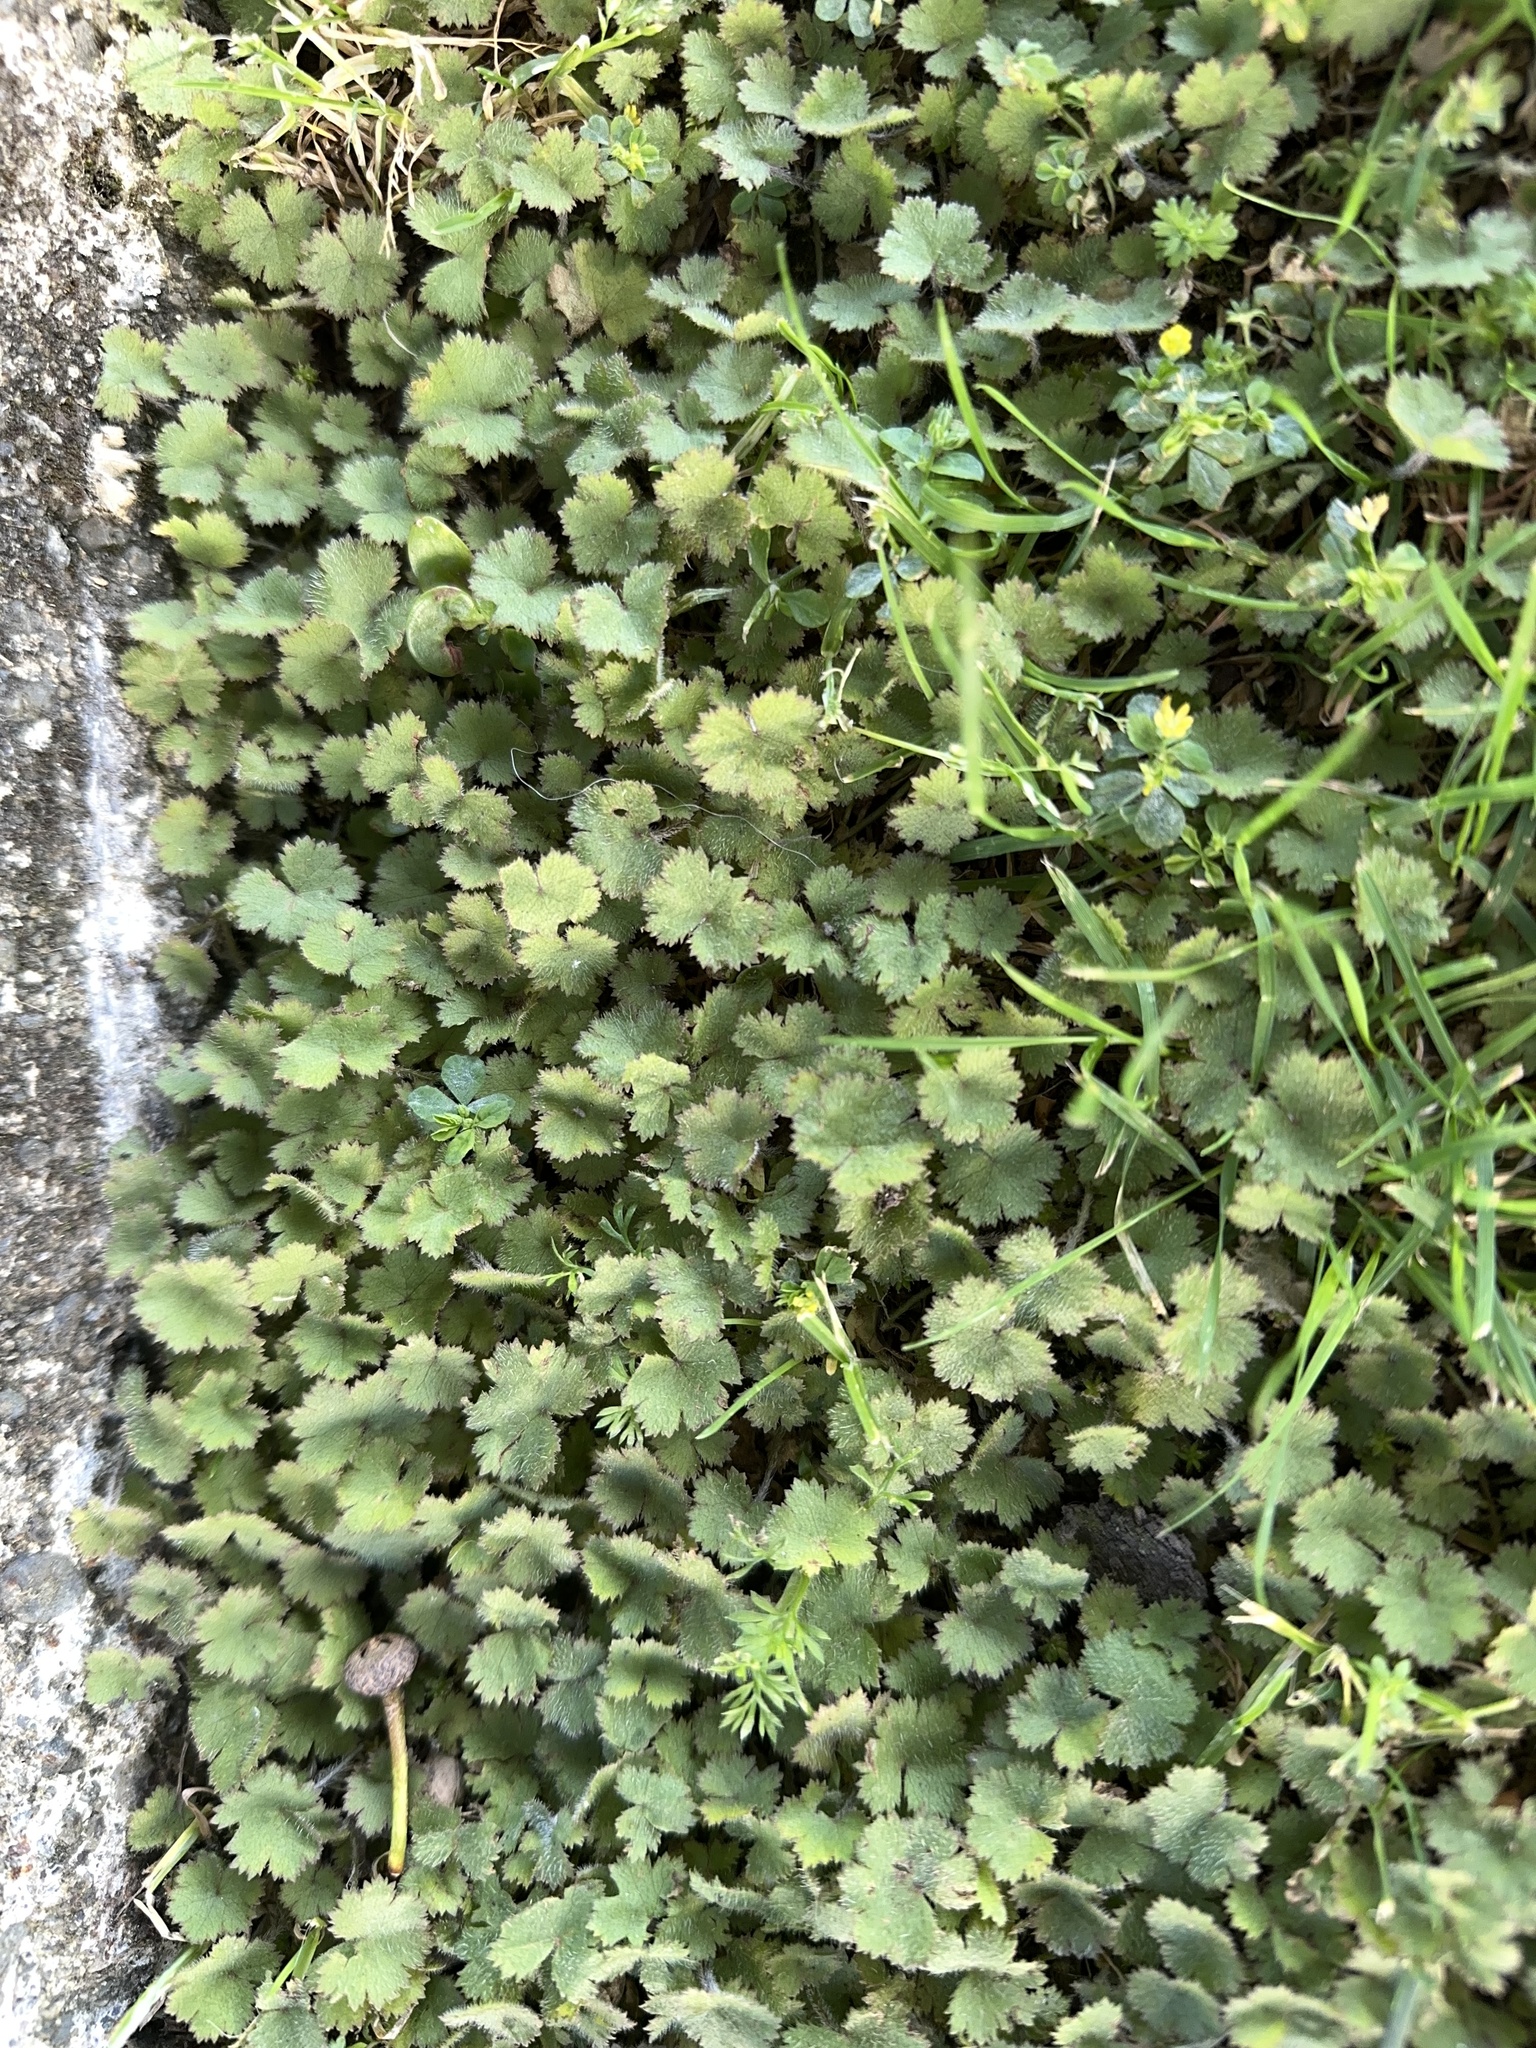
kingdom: Plantae
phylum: Tracheophyta
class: Magnoliopsida
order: Apiales
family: Araliaceae
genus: Hydrocotyle
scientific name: Hydrocotyle moschata
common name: Hairy pennywort
